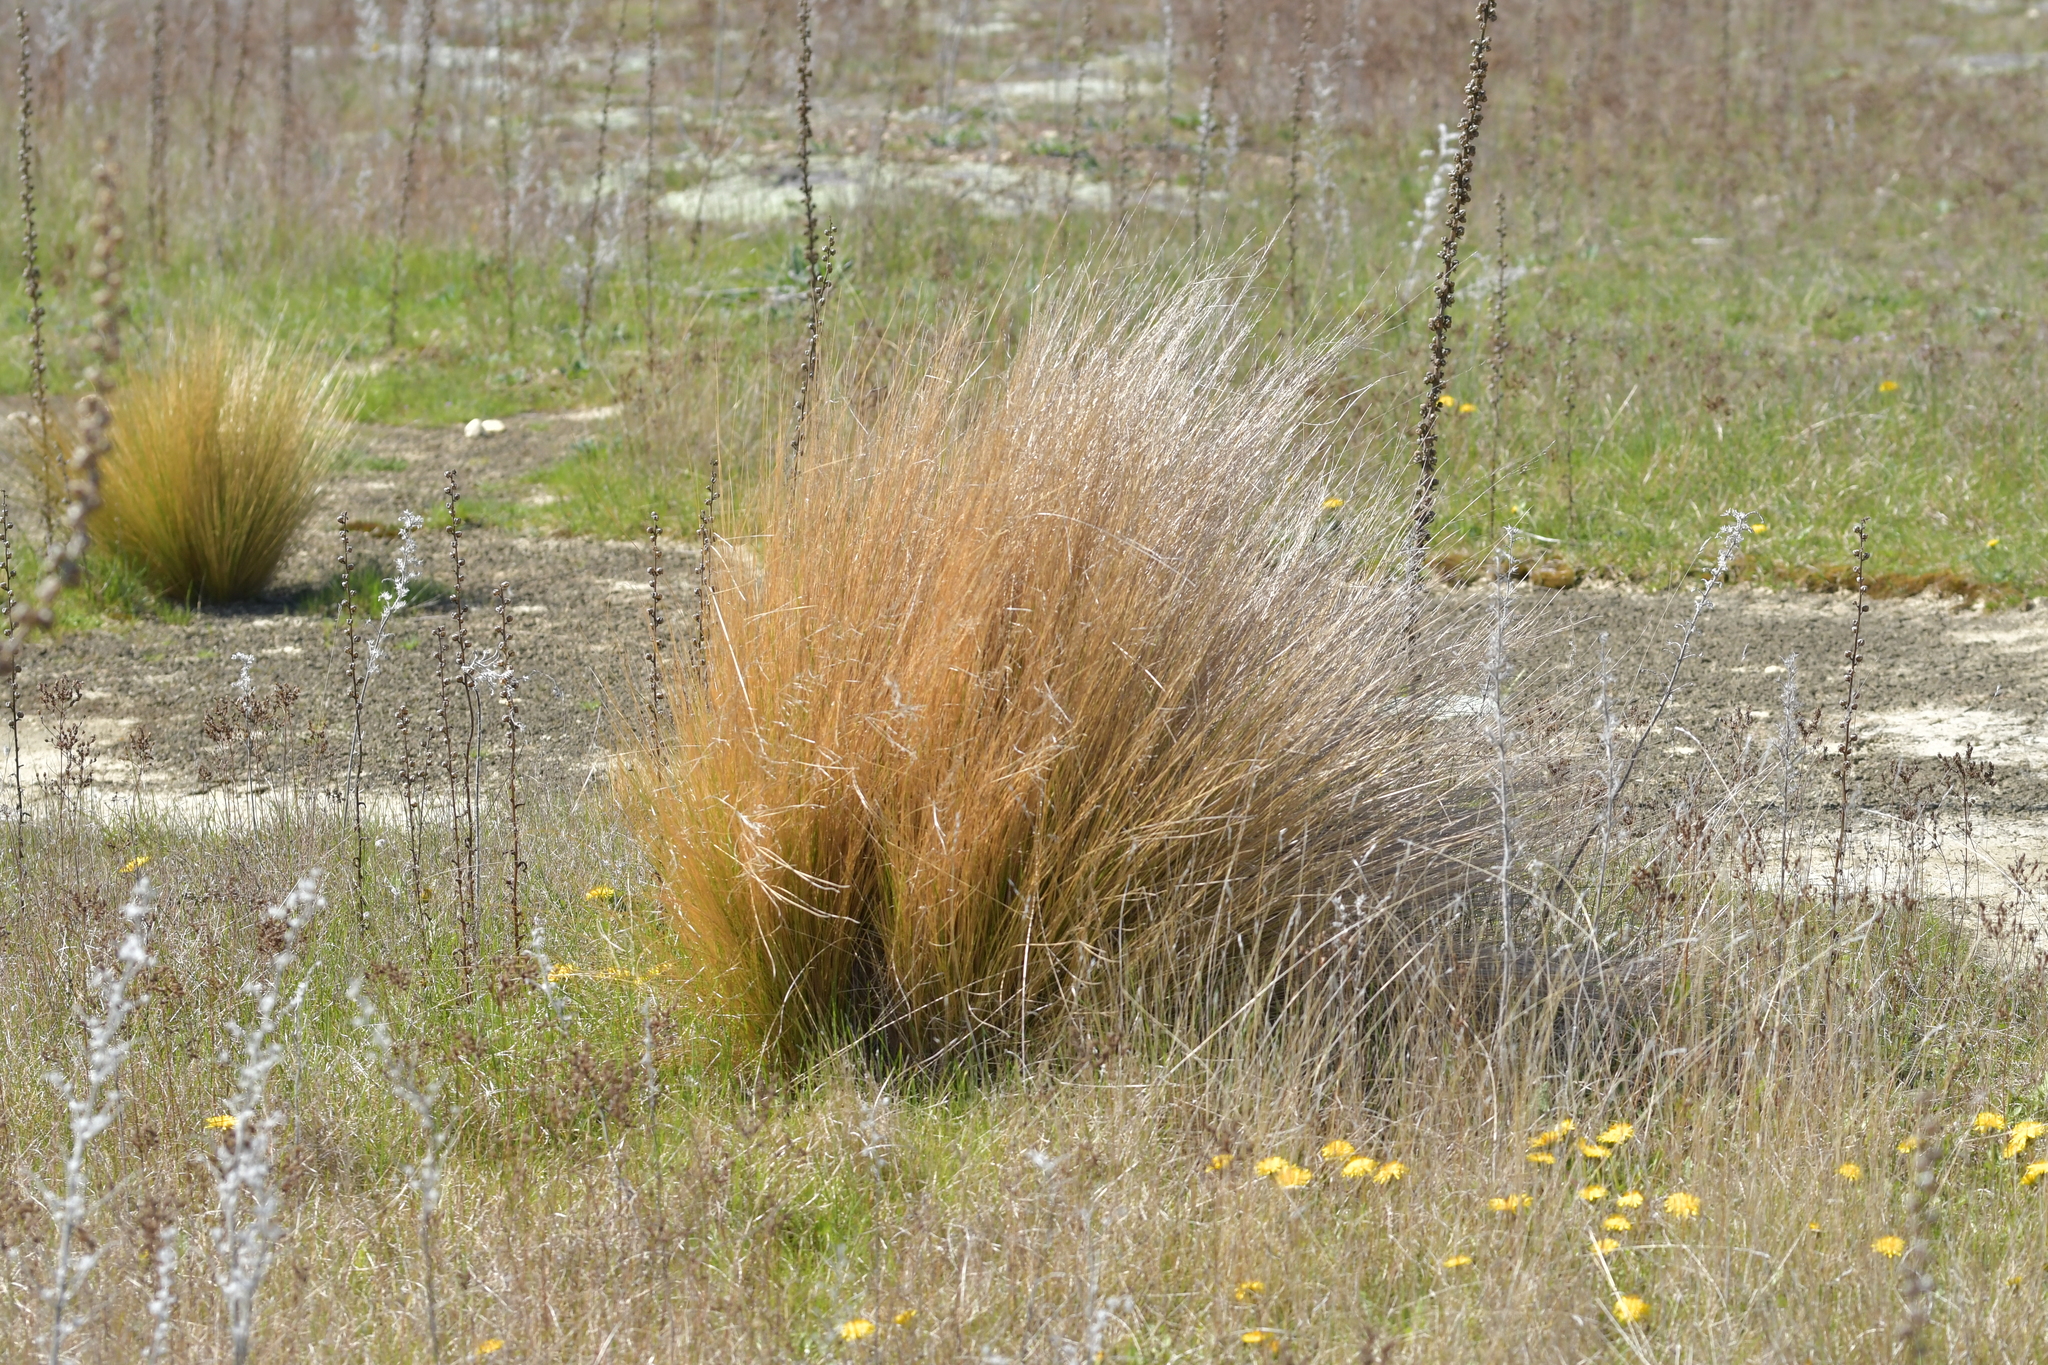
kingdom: Plantae
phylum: Tracheophyta
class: Liliopsida
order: Poales
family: Poaceae
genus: Poa
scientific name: Poa cita
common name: Silver tussock
